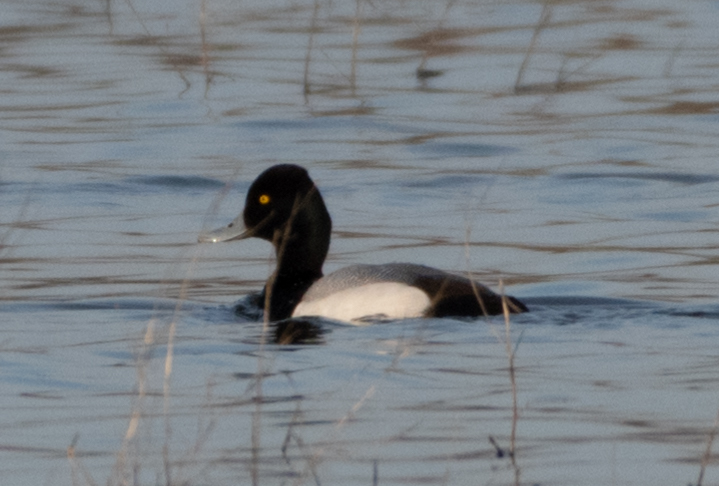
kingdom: Animalia
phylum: Chordata
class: Aves
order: Anseriformes
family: Anatidae
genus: Aythya
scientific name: Aythya affinis
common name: Lesser scaup
